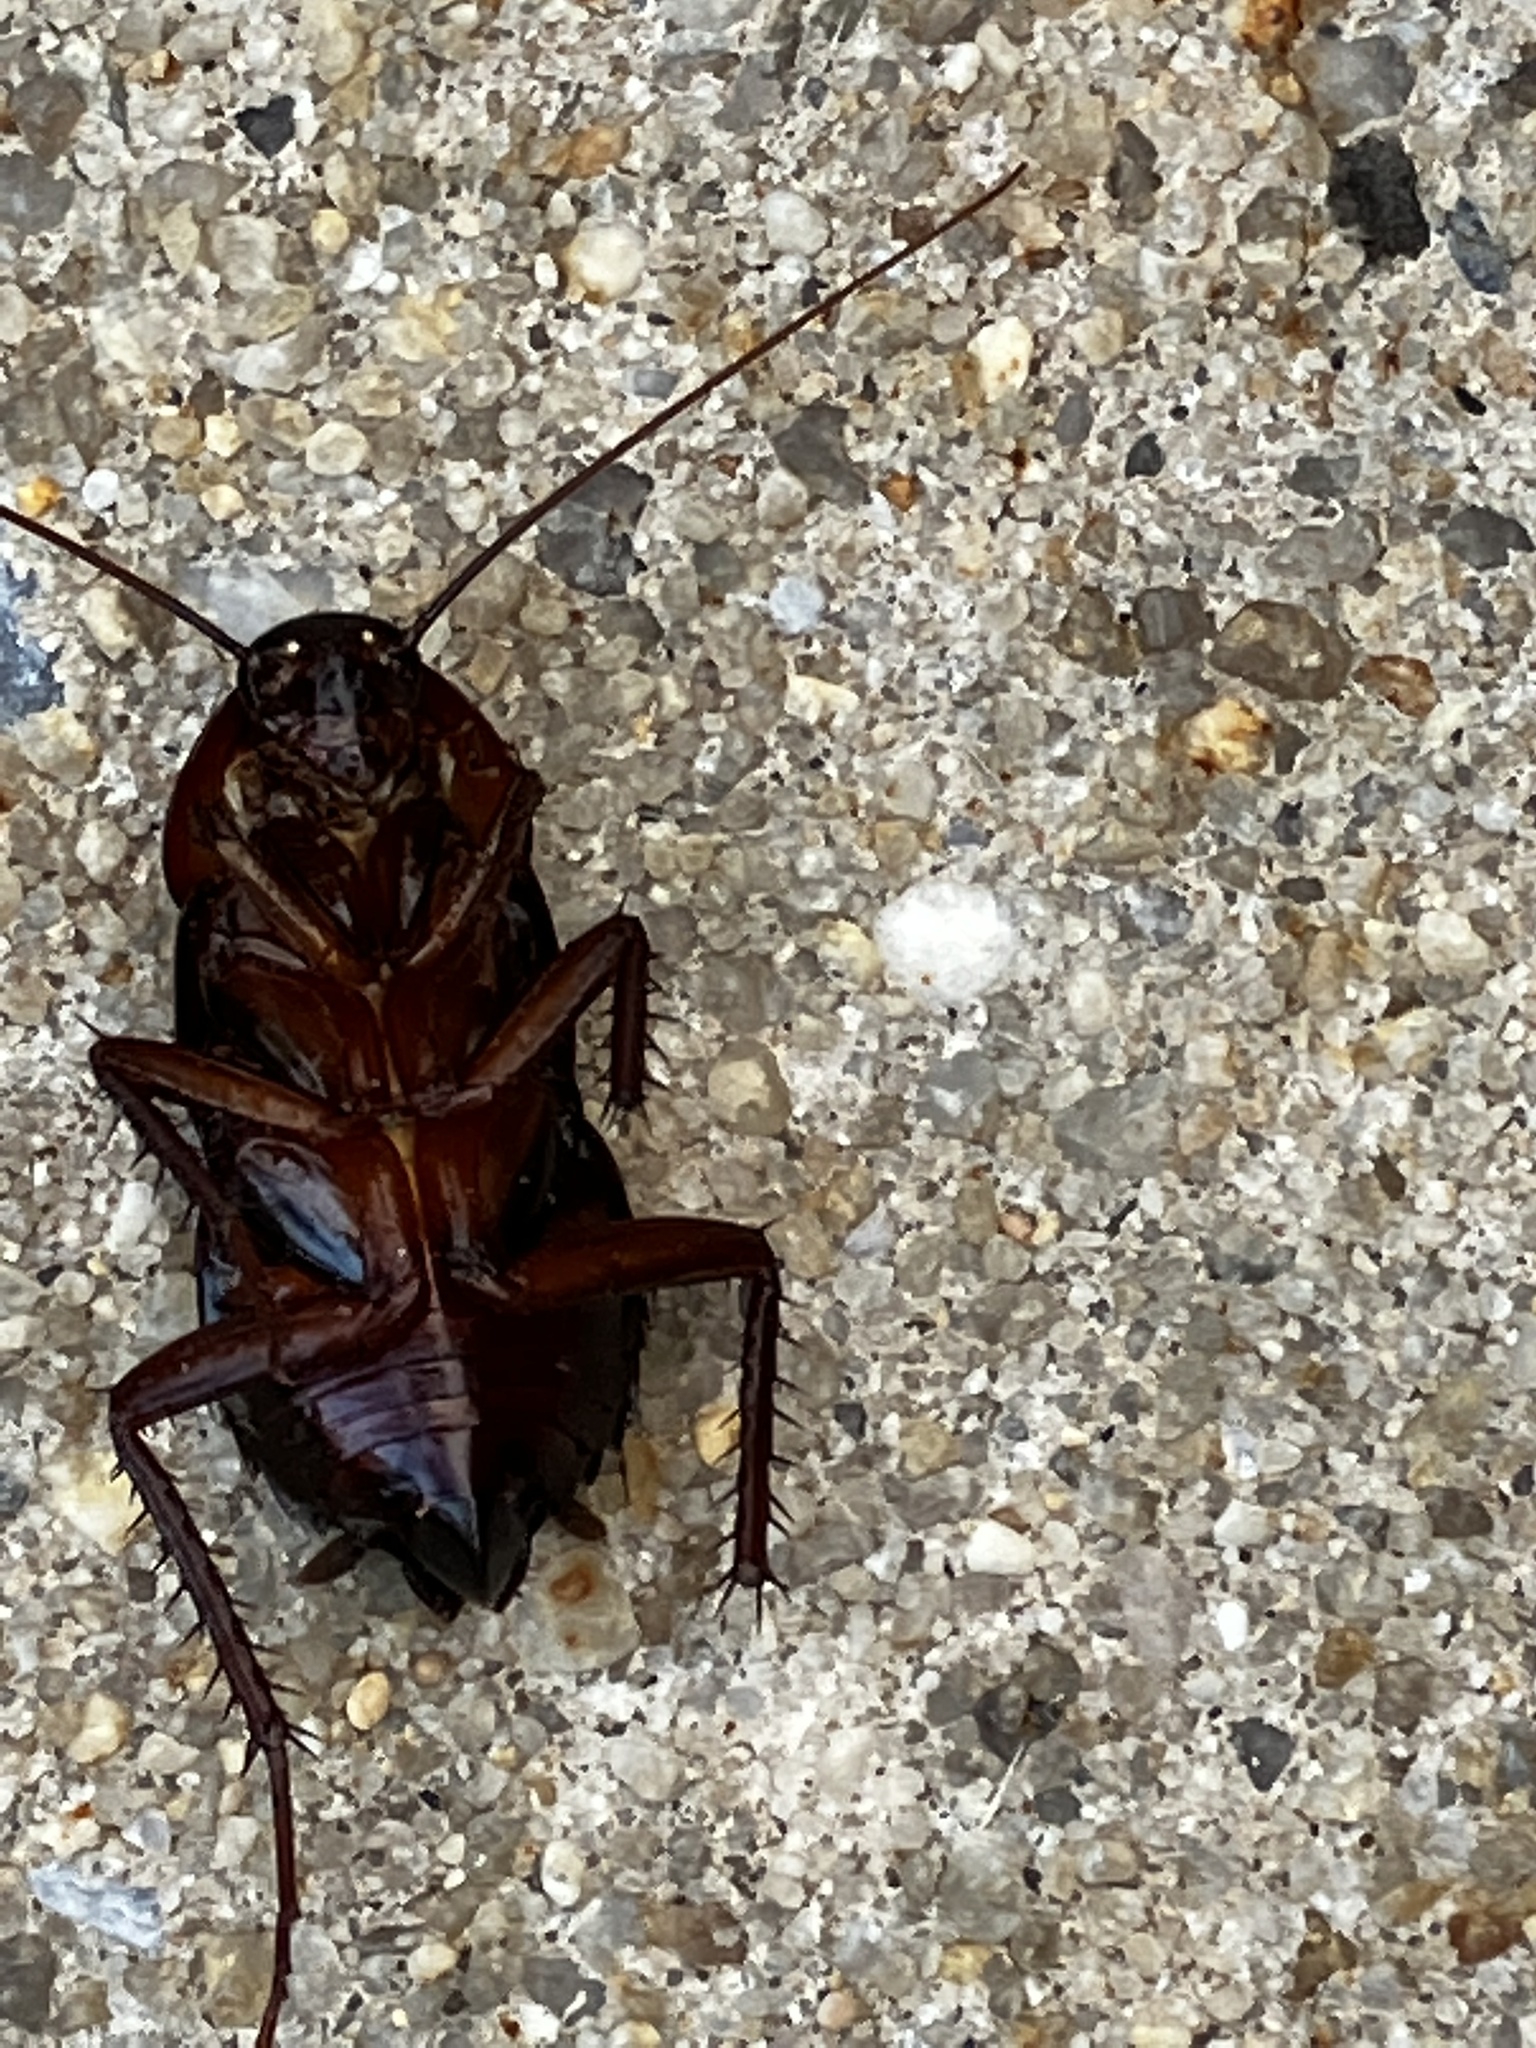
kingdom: Animalia
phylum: Arthropoda
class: Insecta
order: Blattodea
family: Blattidae
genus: Blatta
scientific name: Blatta orientalis
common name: Oriental cockroach
